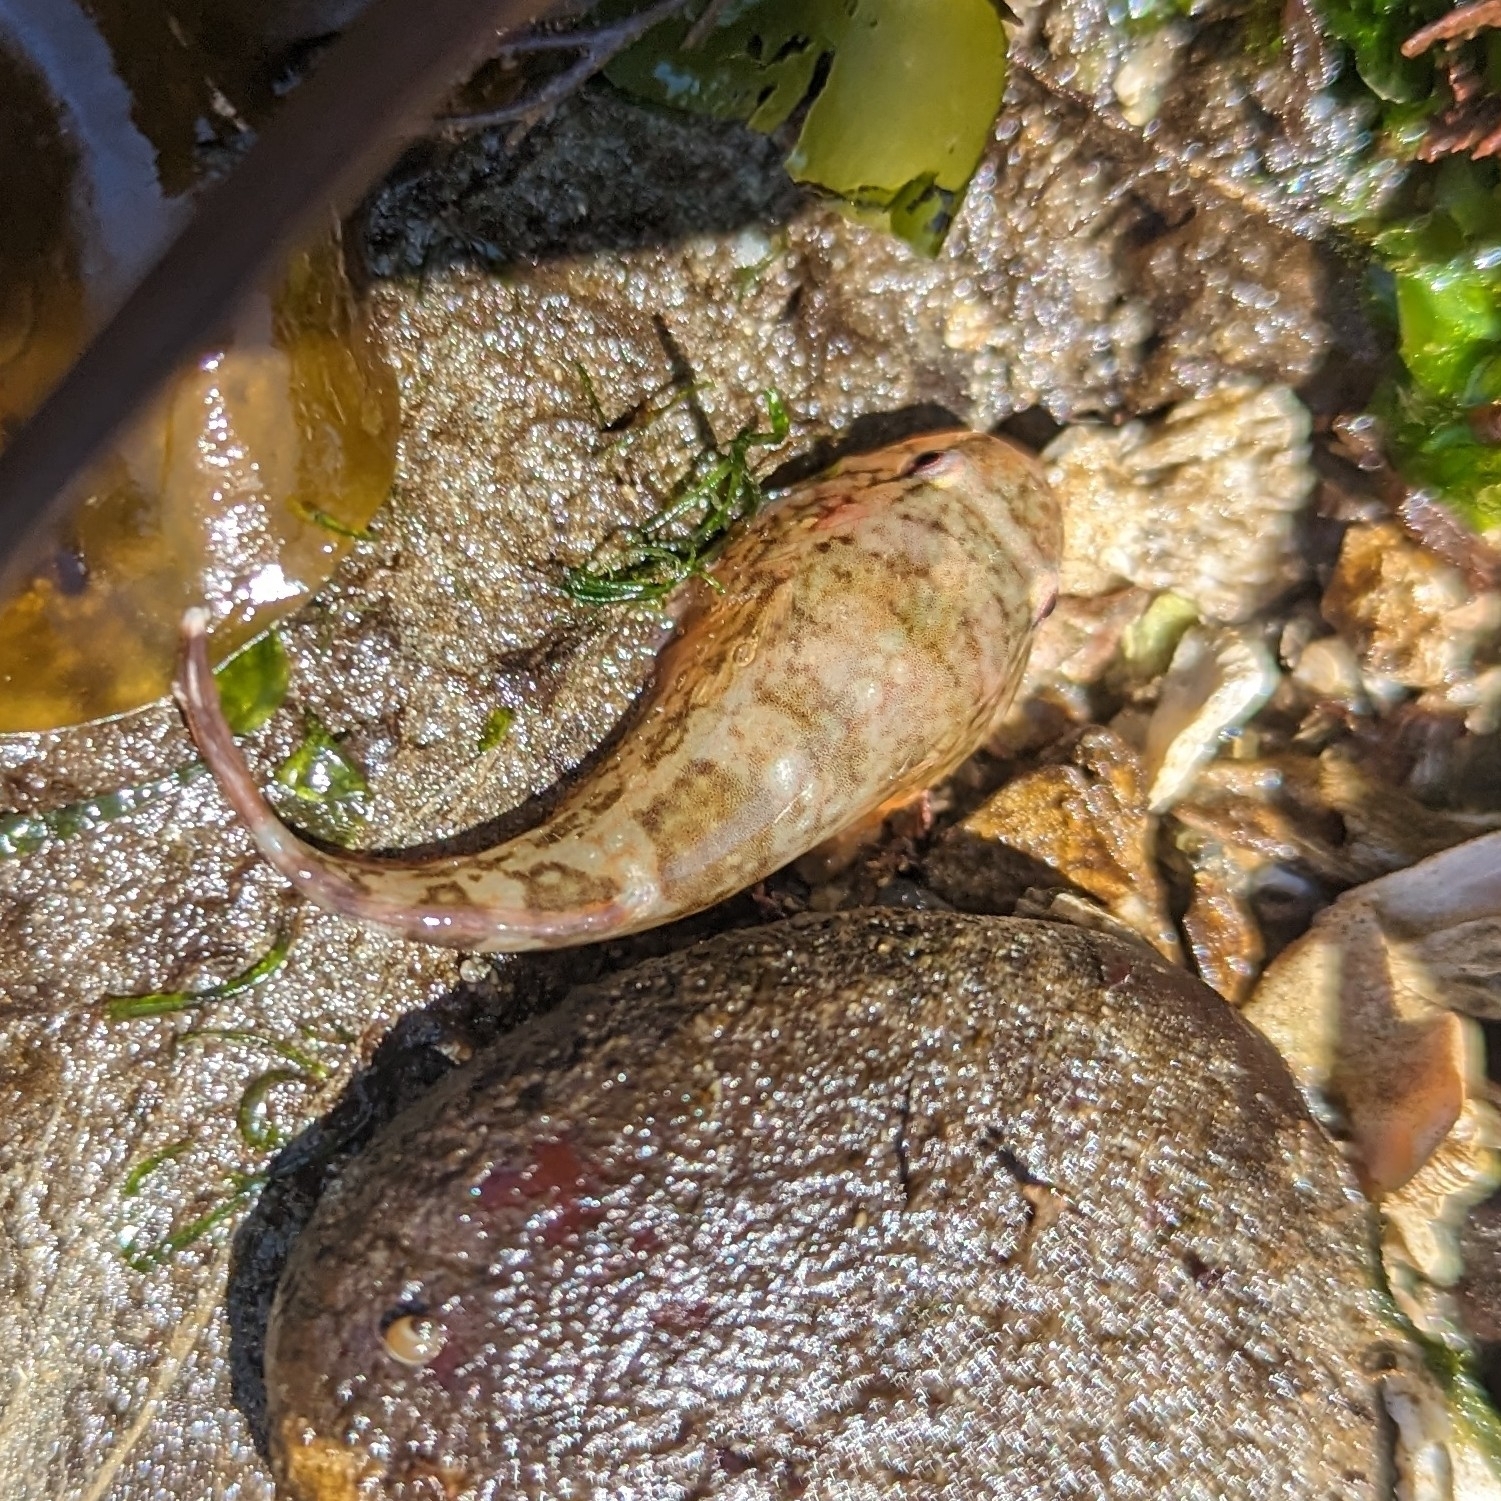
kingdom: Animalia
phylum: Chordata
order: Gobiesociformes
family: Gobiesocidae
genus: Gobiesox
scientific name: Gobiesox maeandricus
